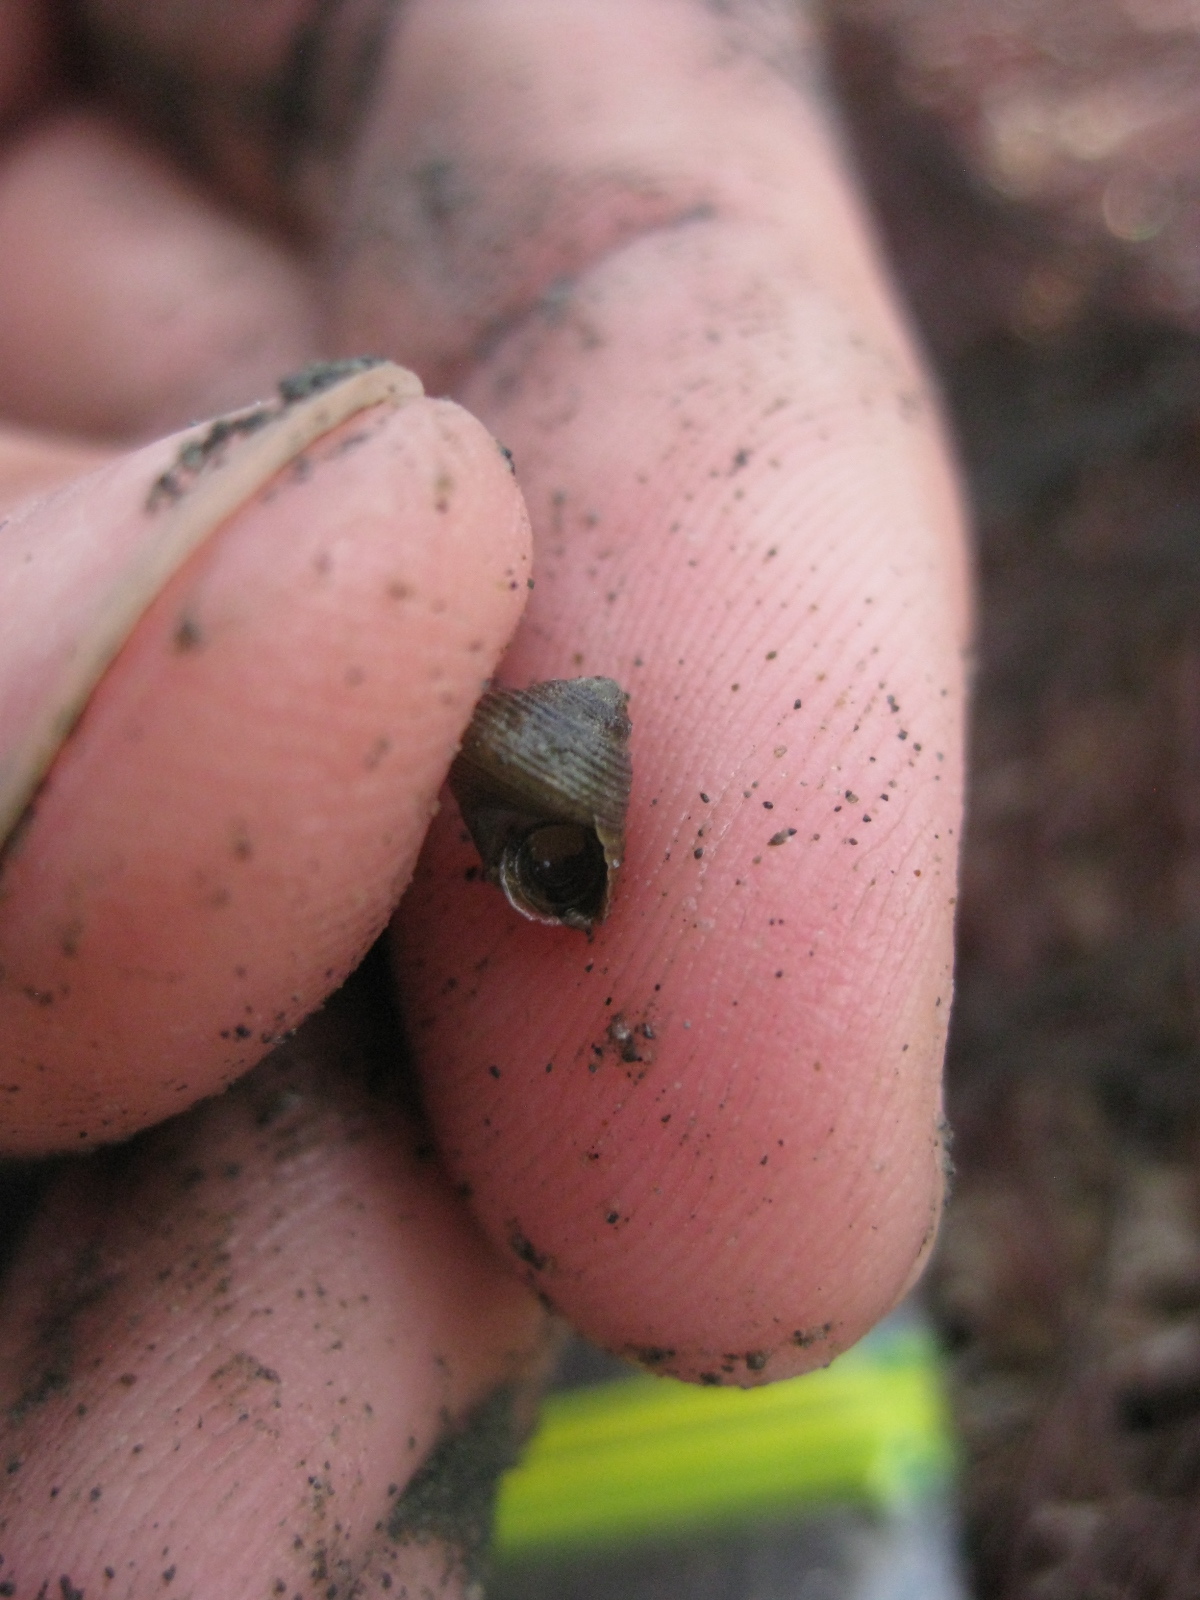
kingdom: Animalia
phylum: Mollusca
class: Gastropoda
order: Trochida
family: Trochidae
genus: Micrelenchus
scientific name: Micrelenchus huttonii
